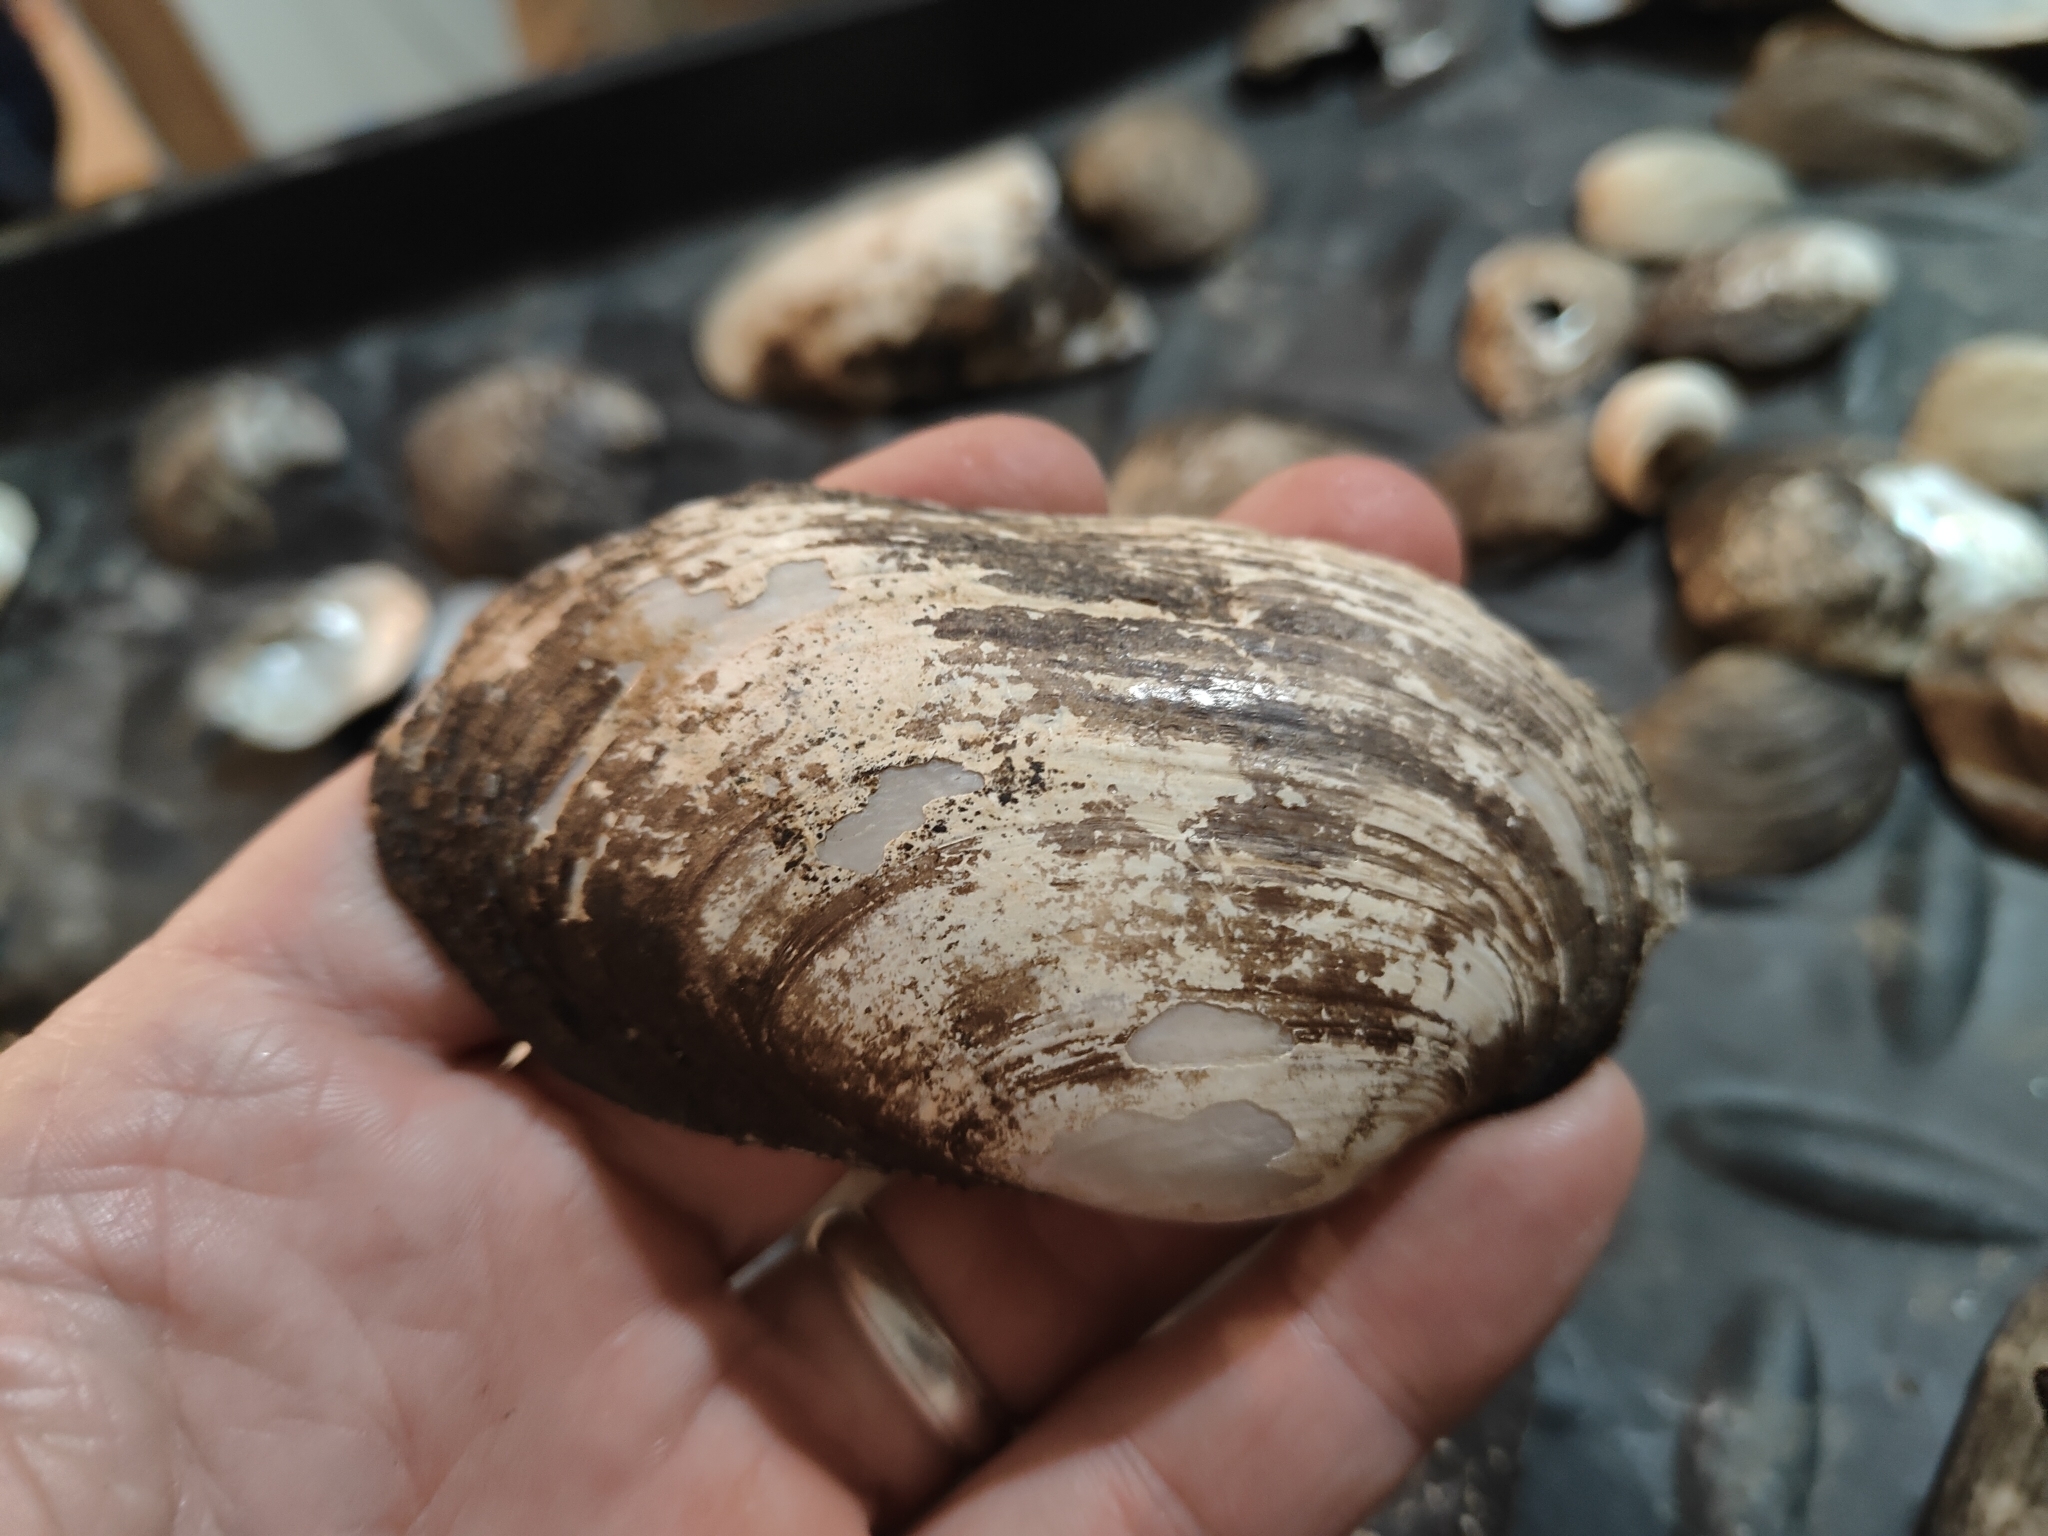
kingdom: Animalia
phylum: Mollusca
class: Bivalvia
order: Unionida
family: Unionidae
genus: Lampsilis
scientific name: Lampsilis siliquoidea
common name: Fatmucket
